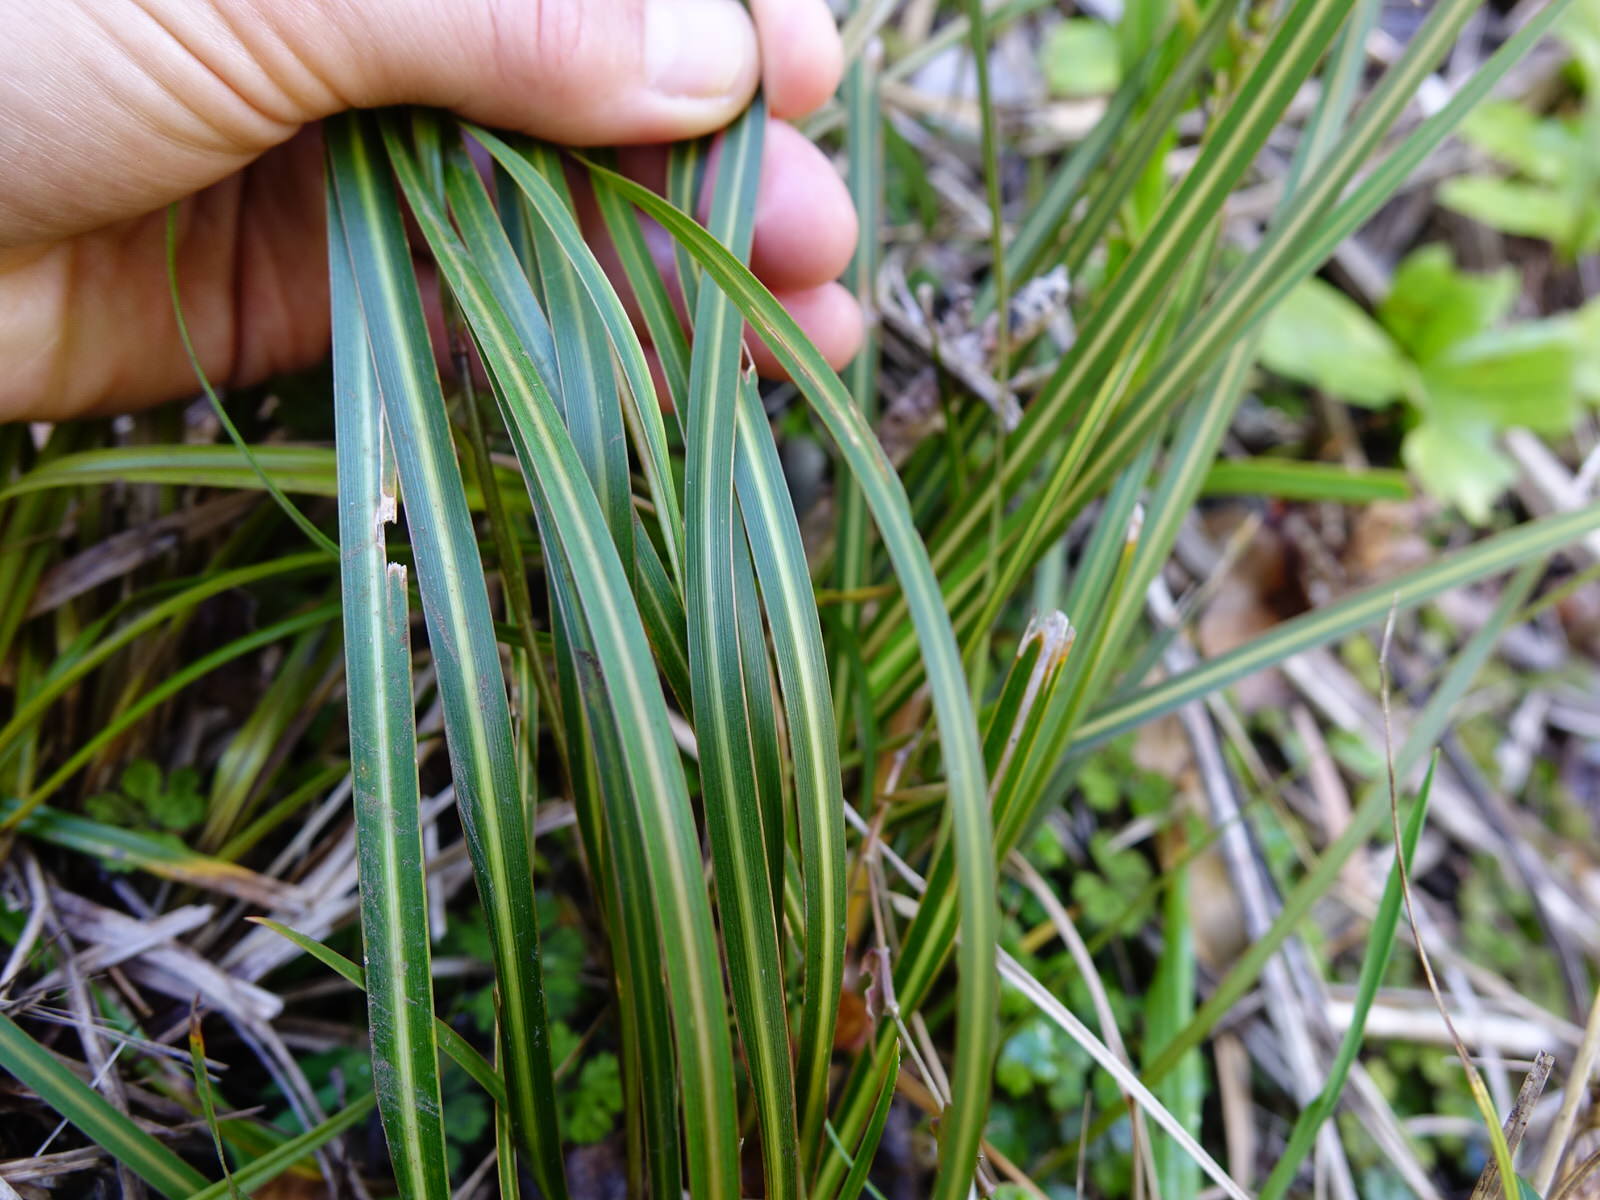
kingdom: Plantae
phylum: Tracheophyta
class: Liliopsida
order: Asparagales
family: Iridaceae
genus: Libertia
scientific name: Libertia grandiflora
